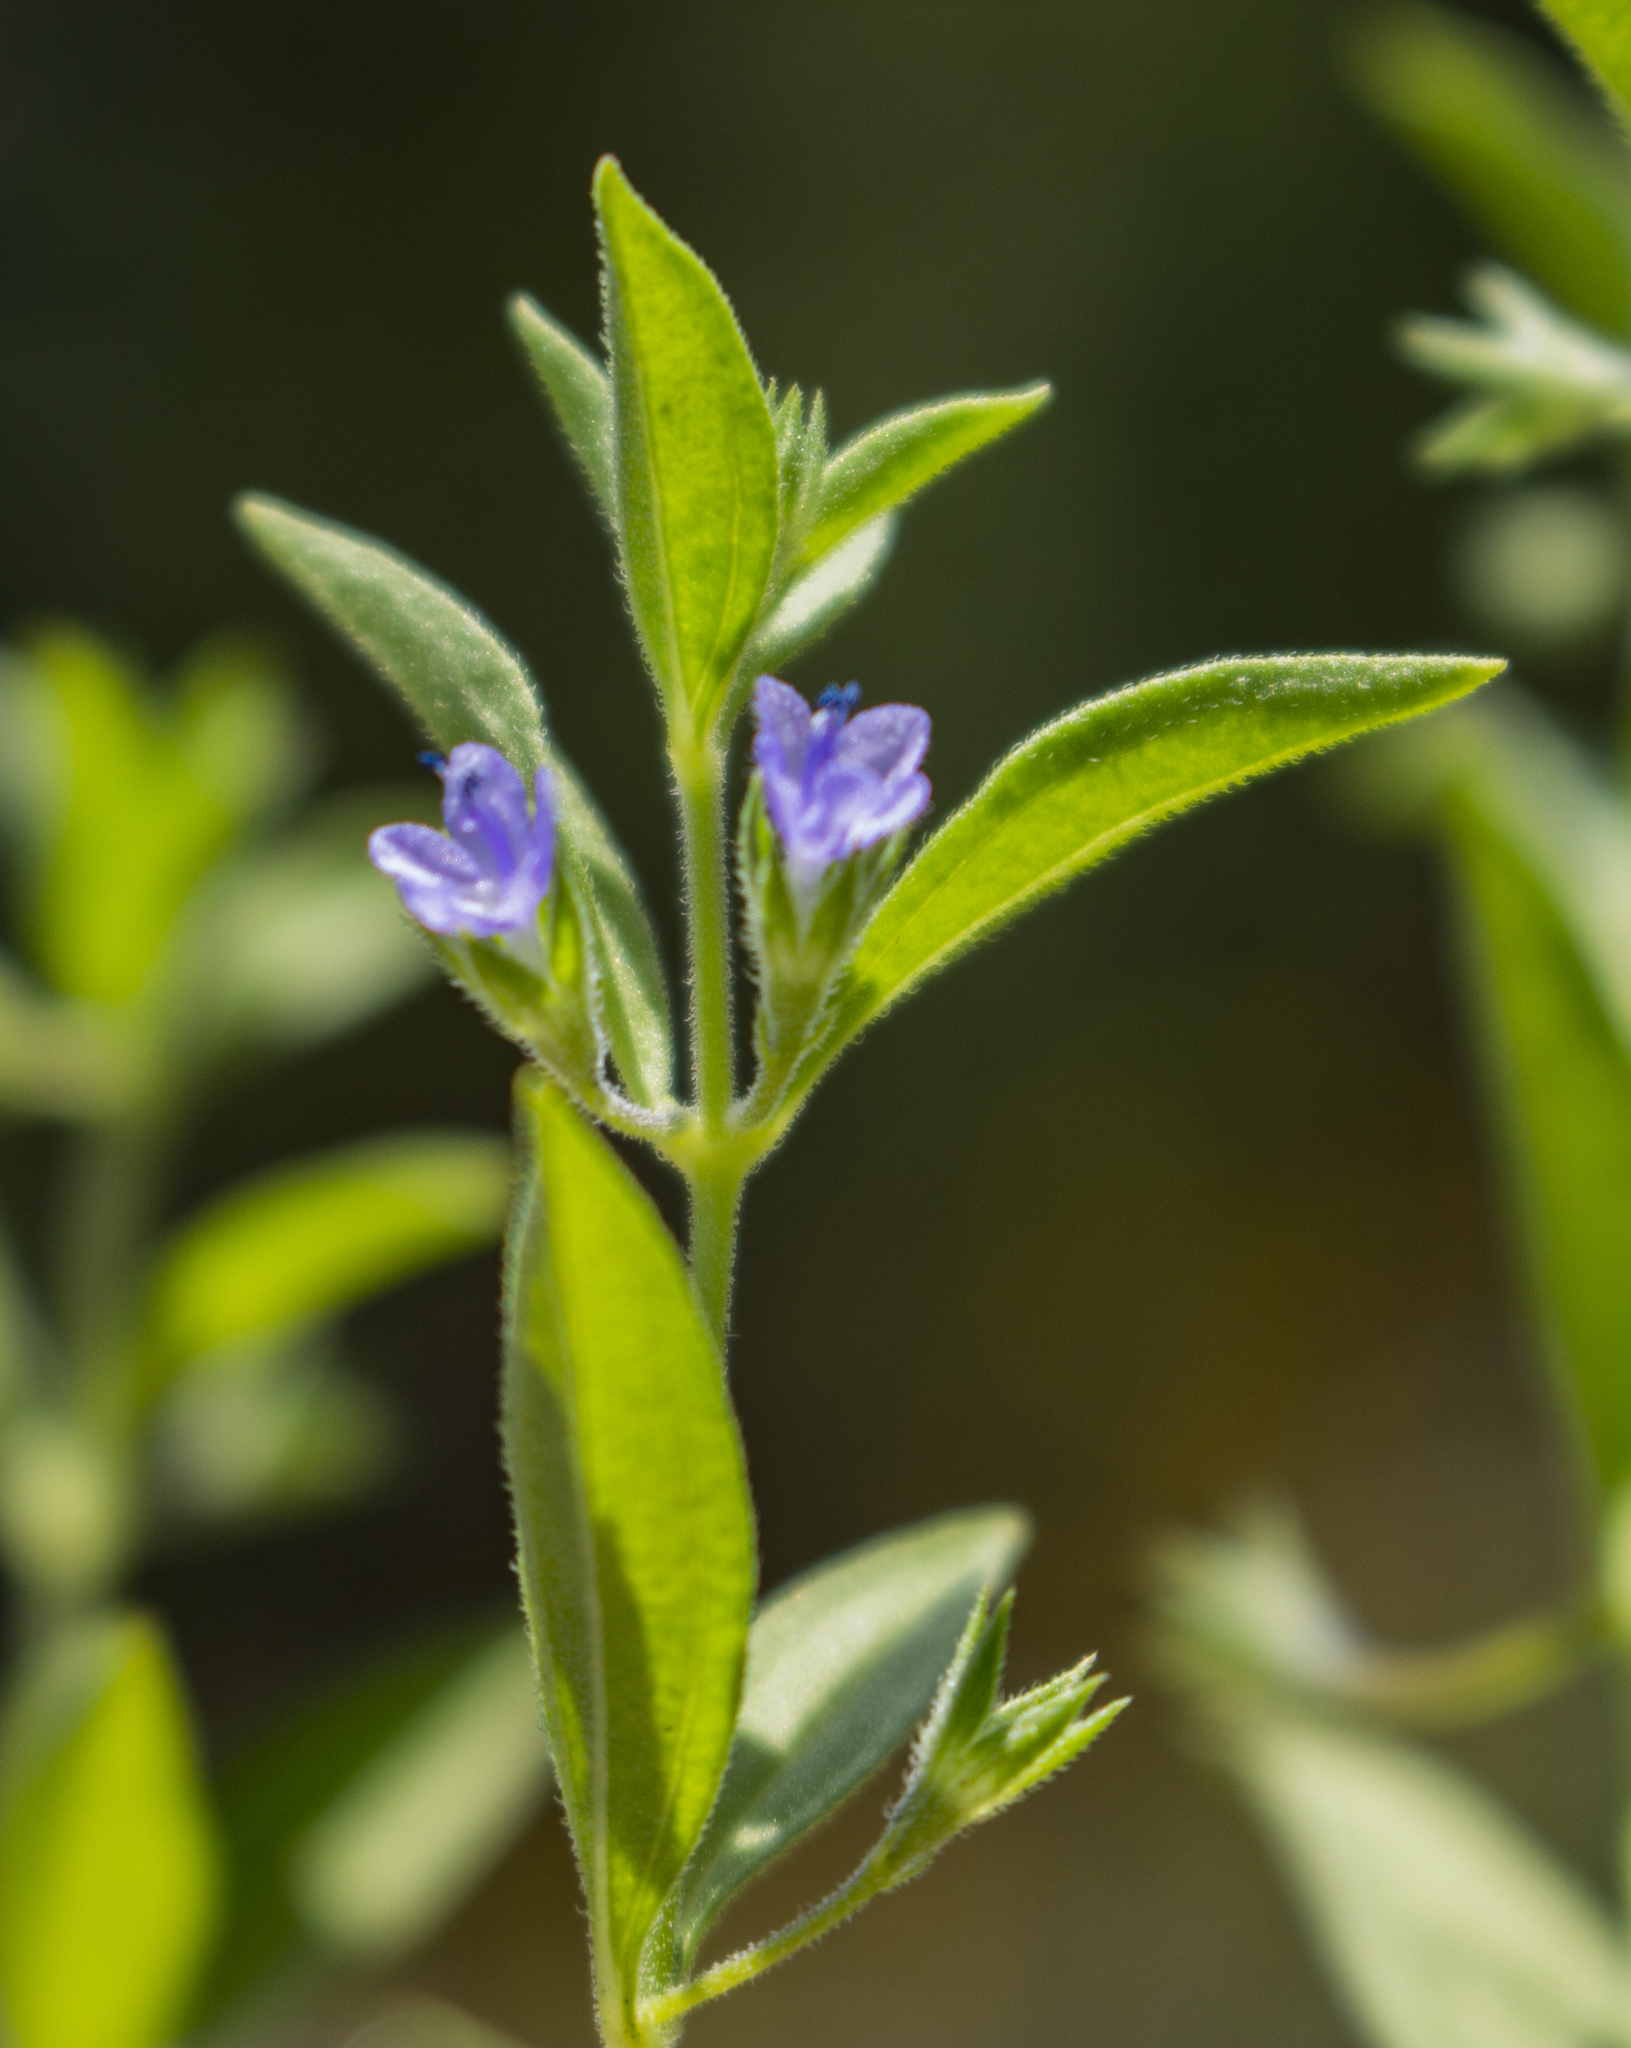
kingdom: Plantae
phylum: Tracheophyta
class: Magnoliopsida
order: Lamiales
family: Lamiaceae
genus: Trichostema
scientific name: Trichostema brachiatum
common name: False pennyroyal
